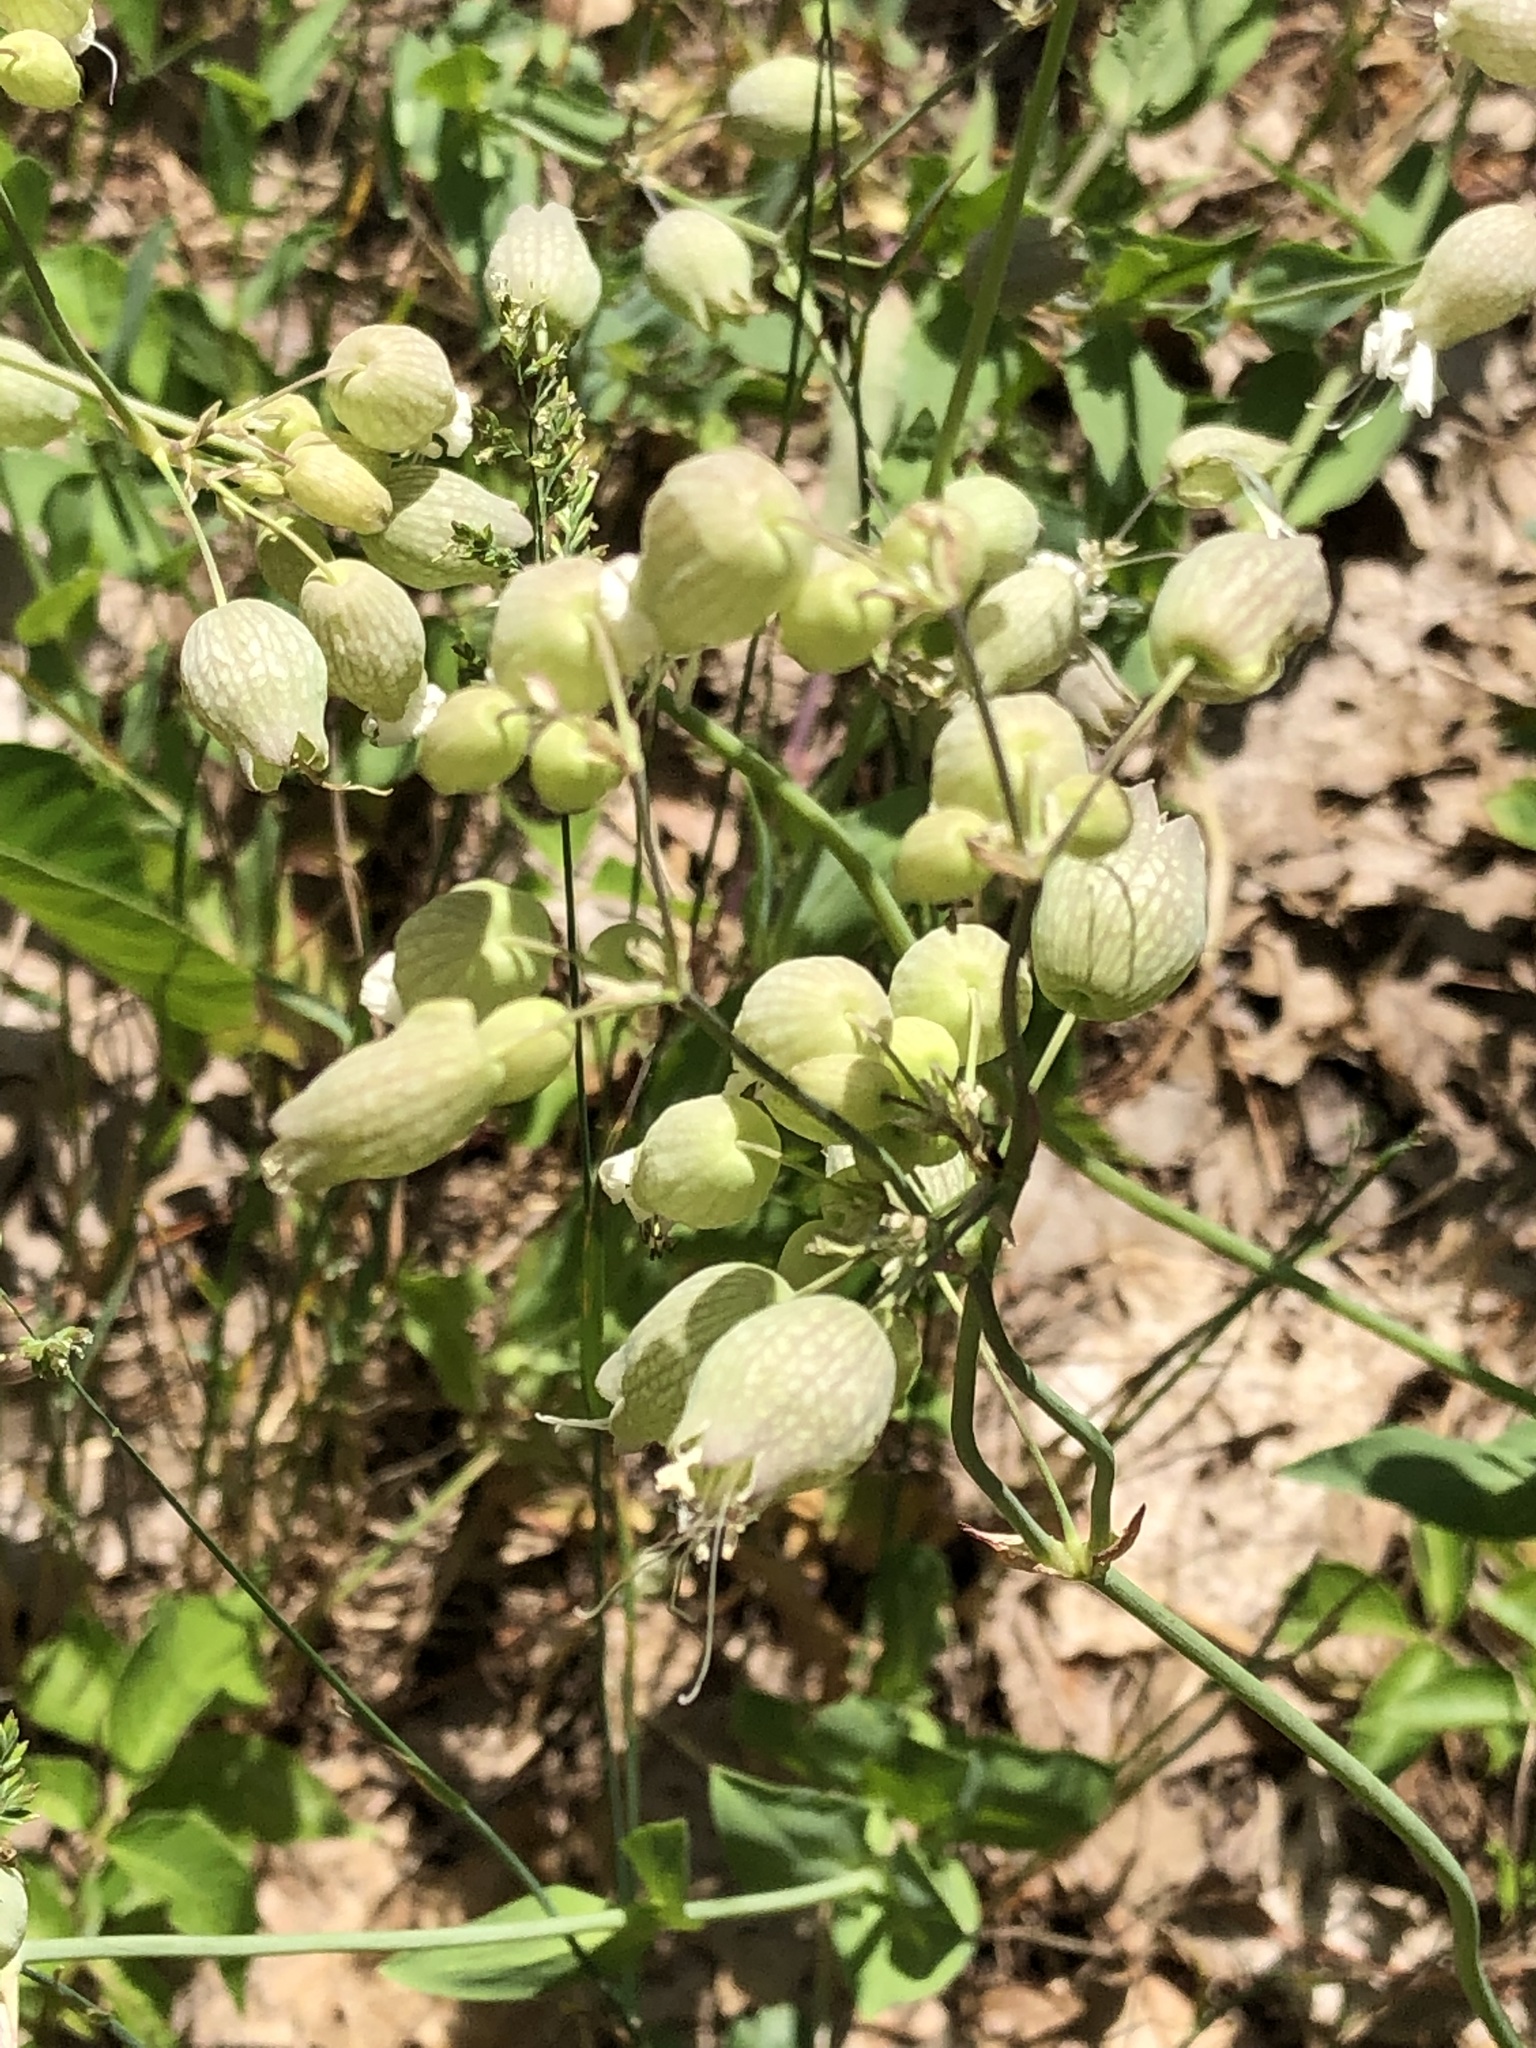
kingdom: Plantae
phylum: Tracheophyta
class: Magnoliopsida
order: Caryophyllales
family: Caryophyllaceae
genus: Silene
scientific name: Silene vulgaris
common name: Bladder campion
